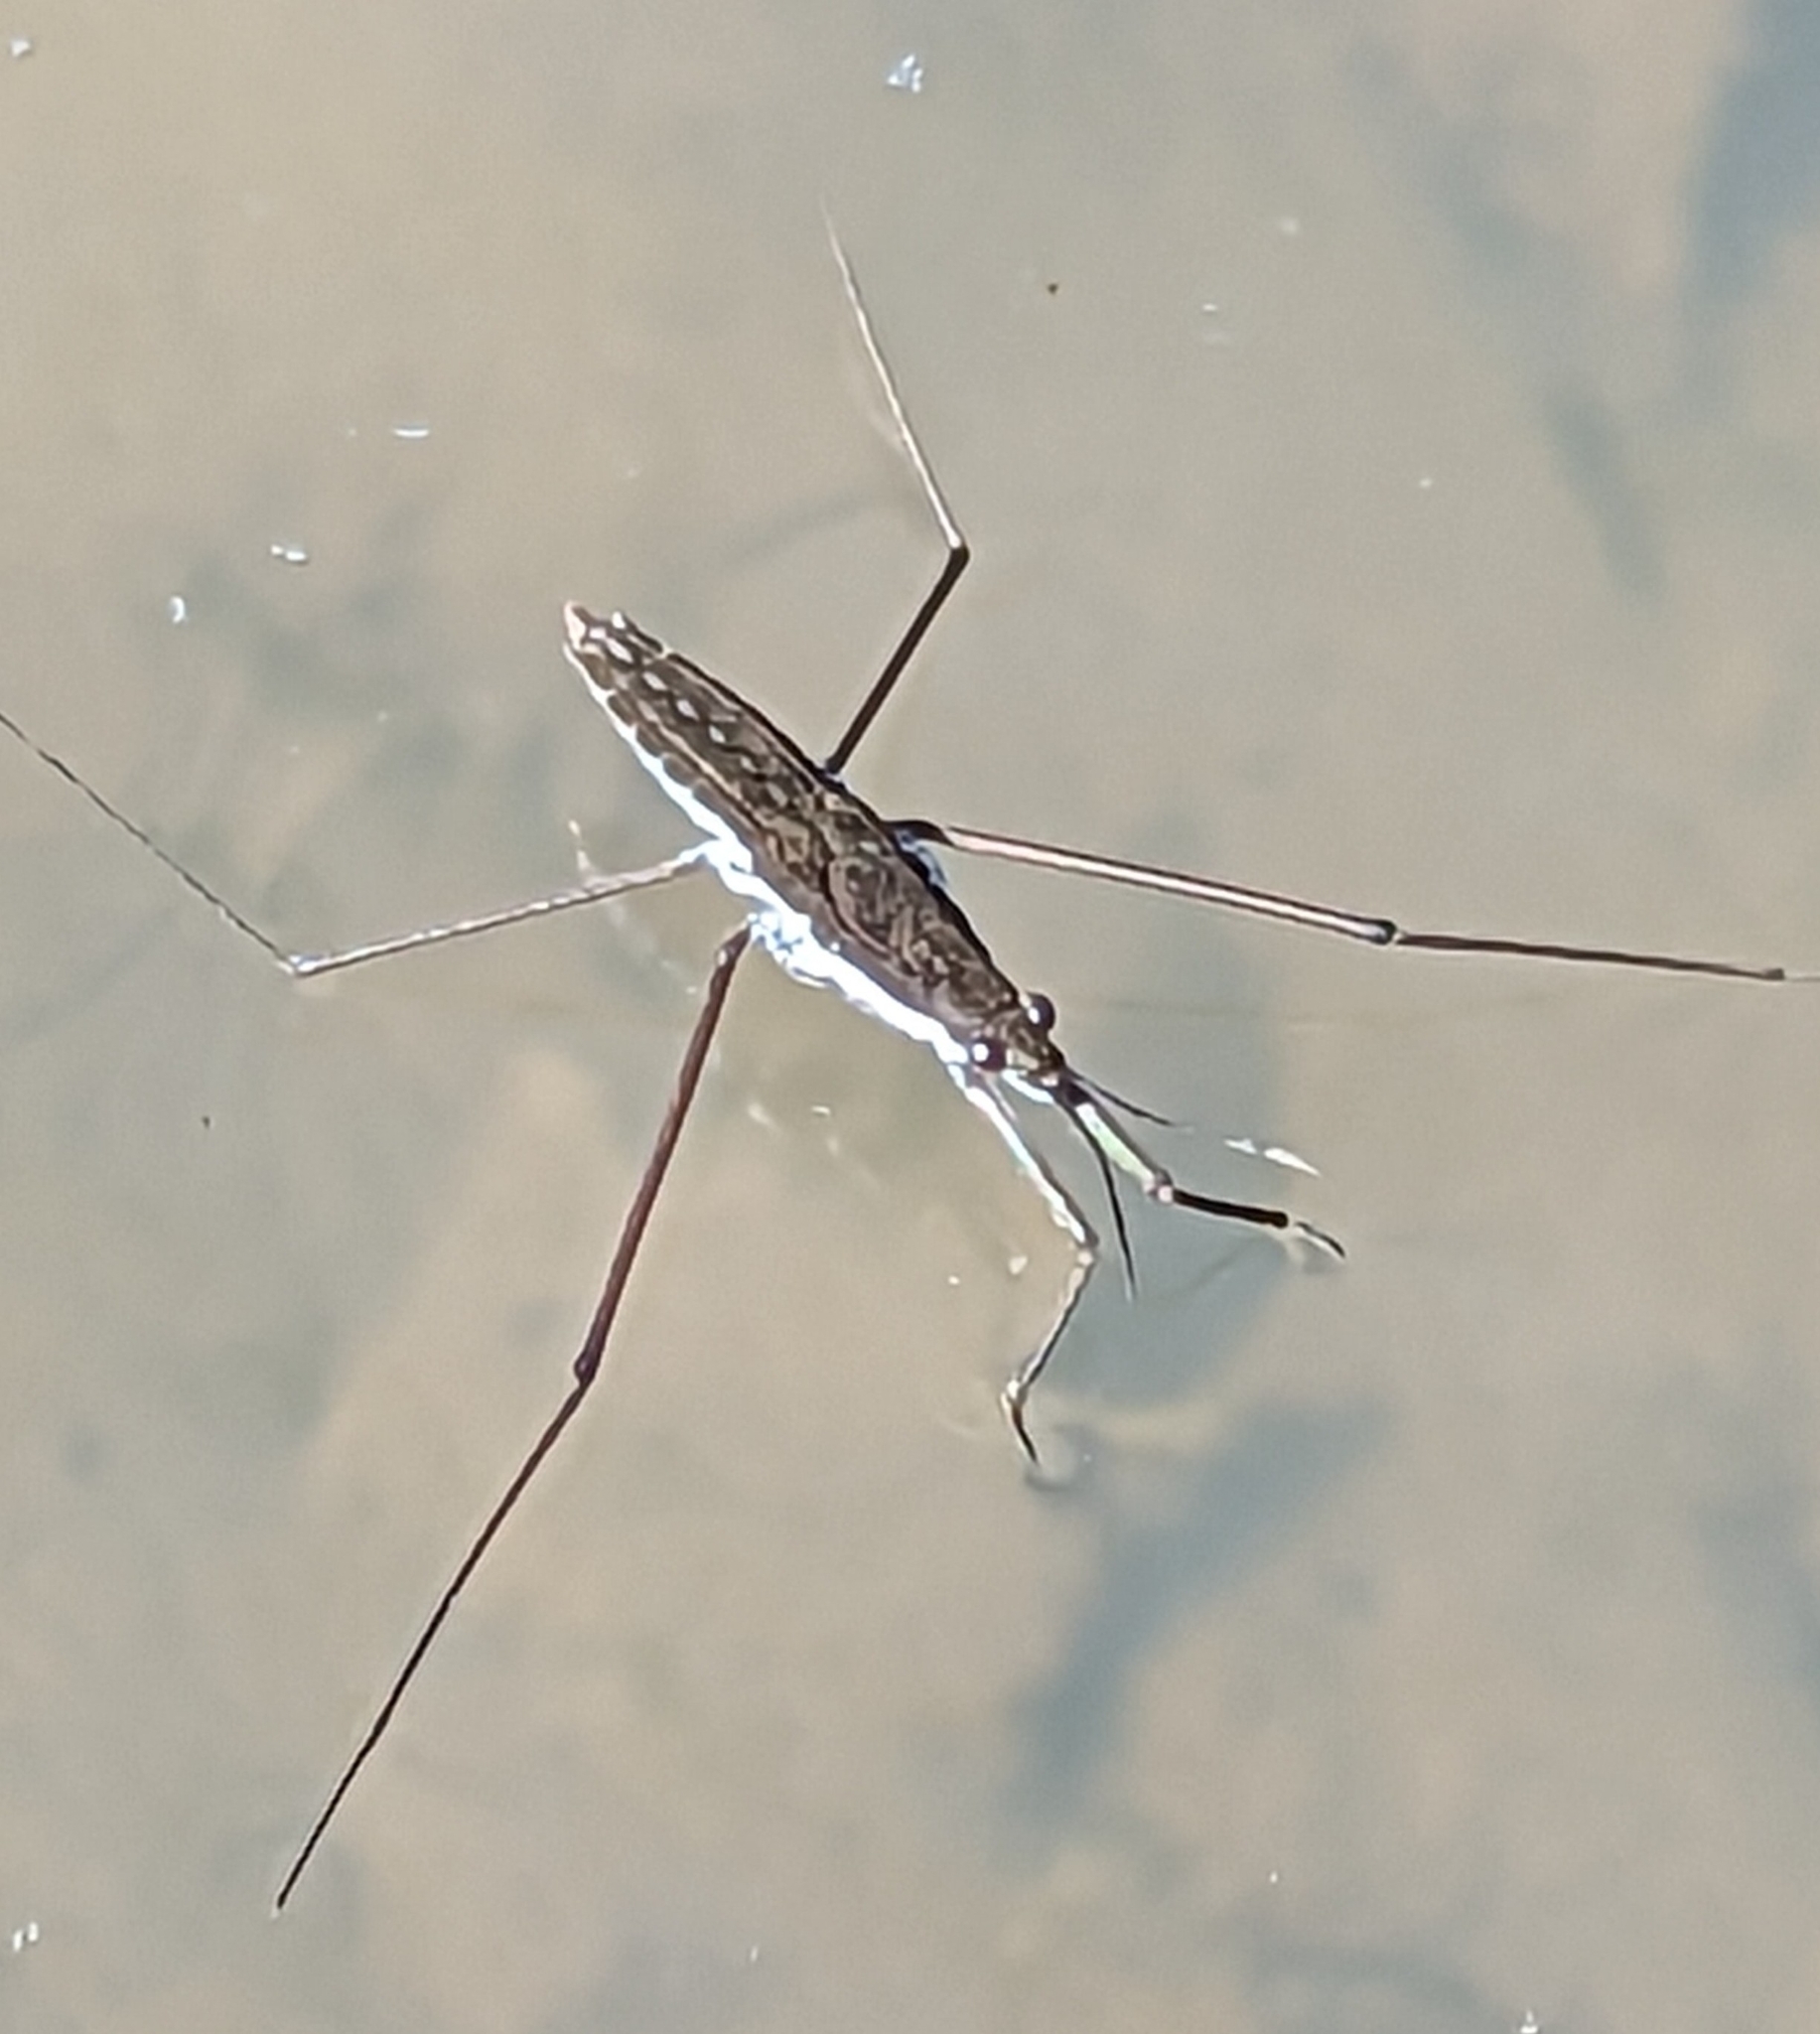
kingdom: Animalia
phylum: Arthropoda
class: Insecta
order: Hemiptera
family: Gerridae
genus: Aquarius
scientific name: Aquarius remigis
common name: Common water strider
